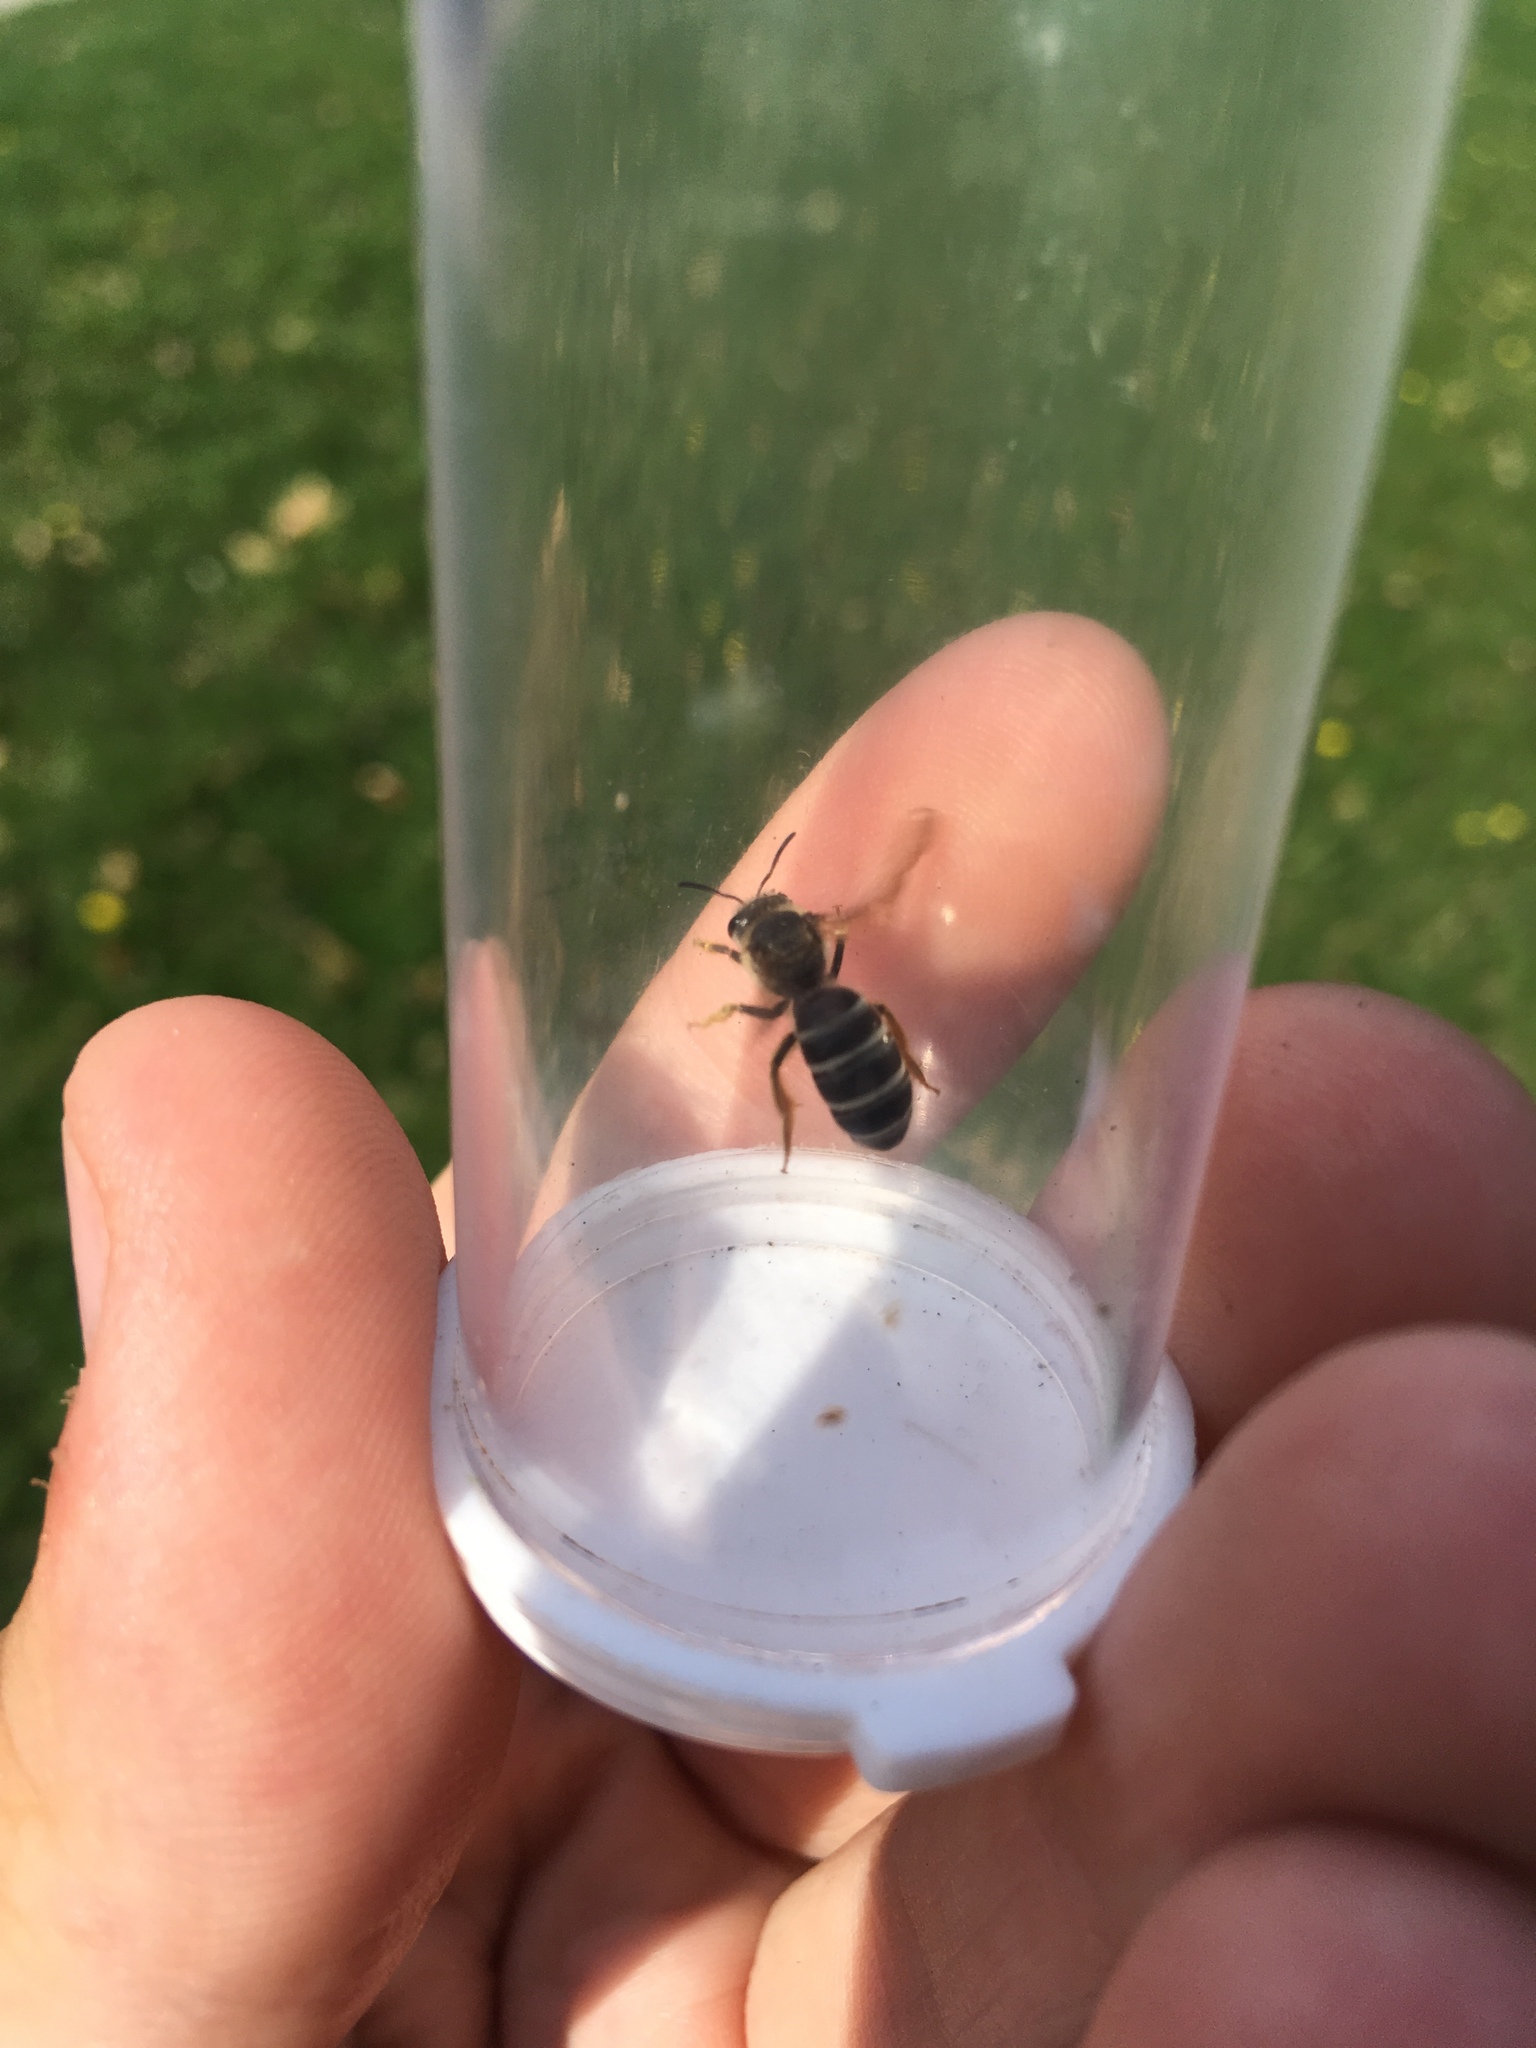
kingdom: Animalia
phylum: Arthropoda
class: Insecta
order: Hymenoptera
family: Halictidae
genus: Halictus
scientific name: Halictus rubicundus
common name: Orange-legged furrow bee
